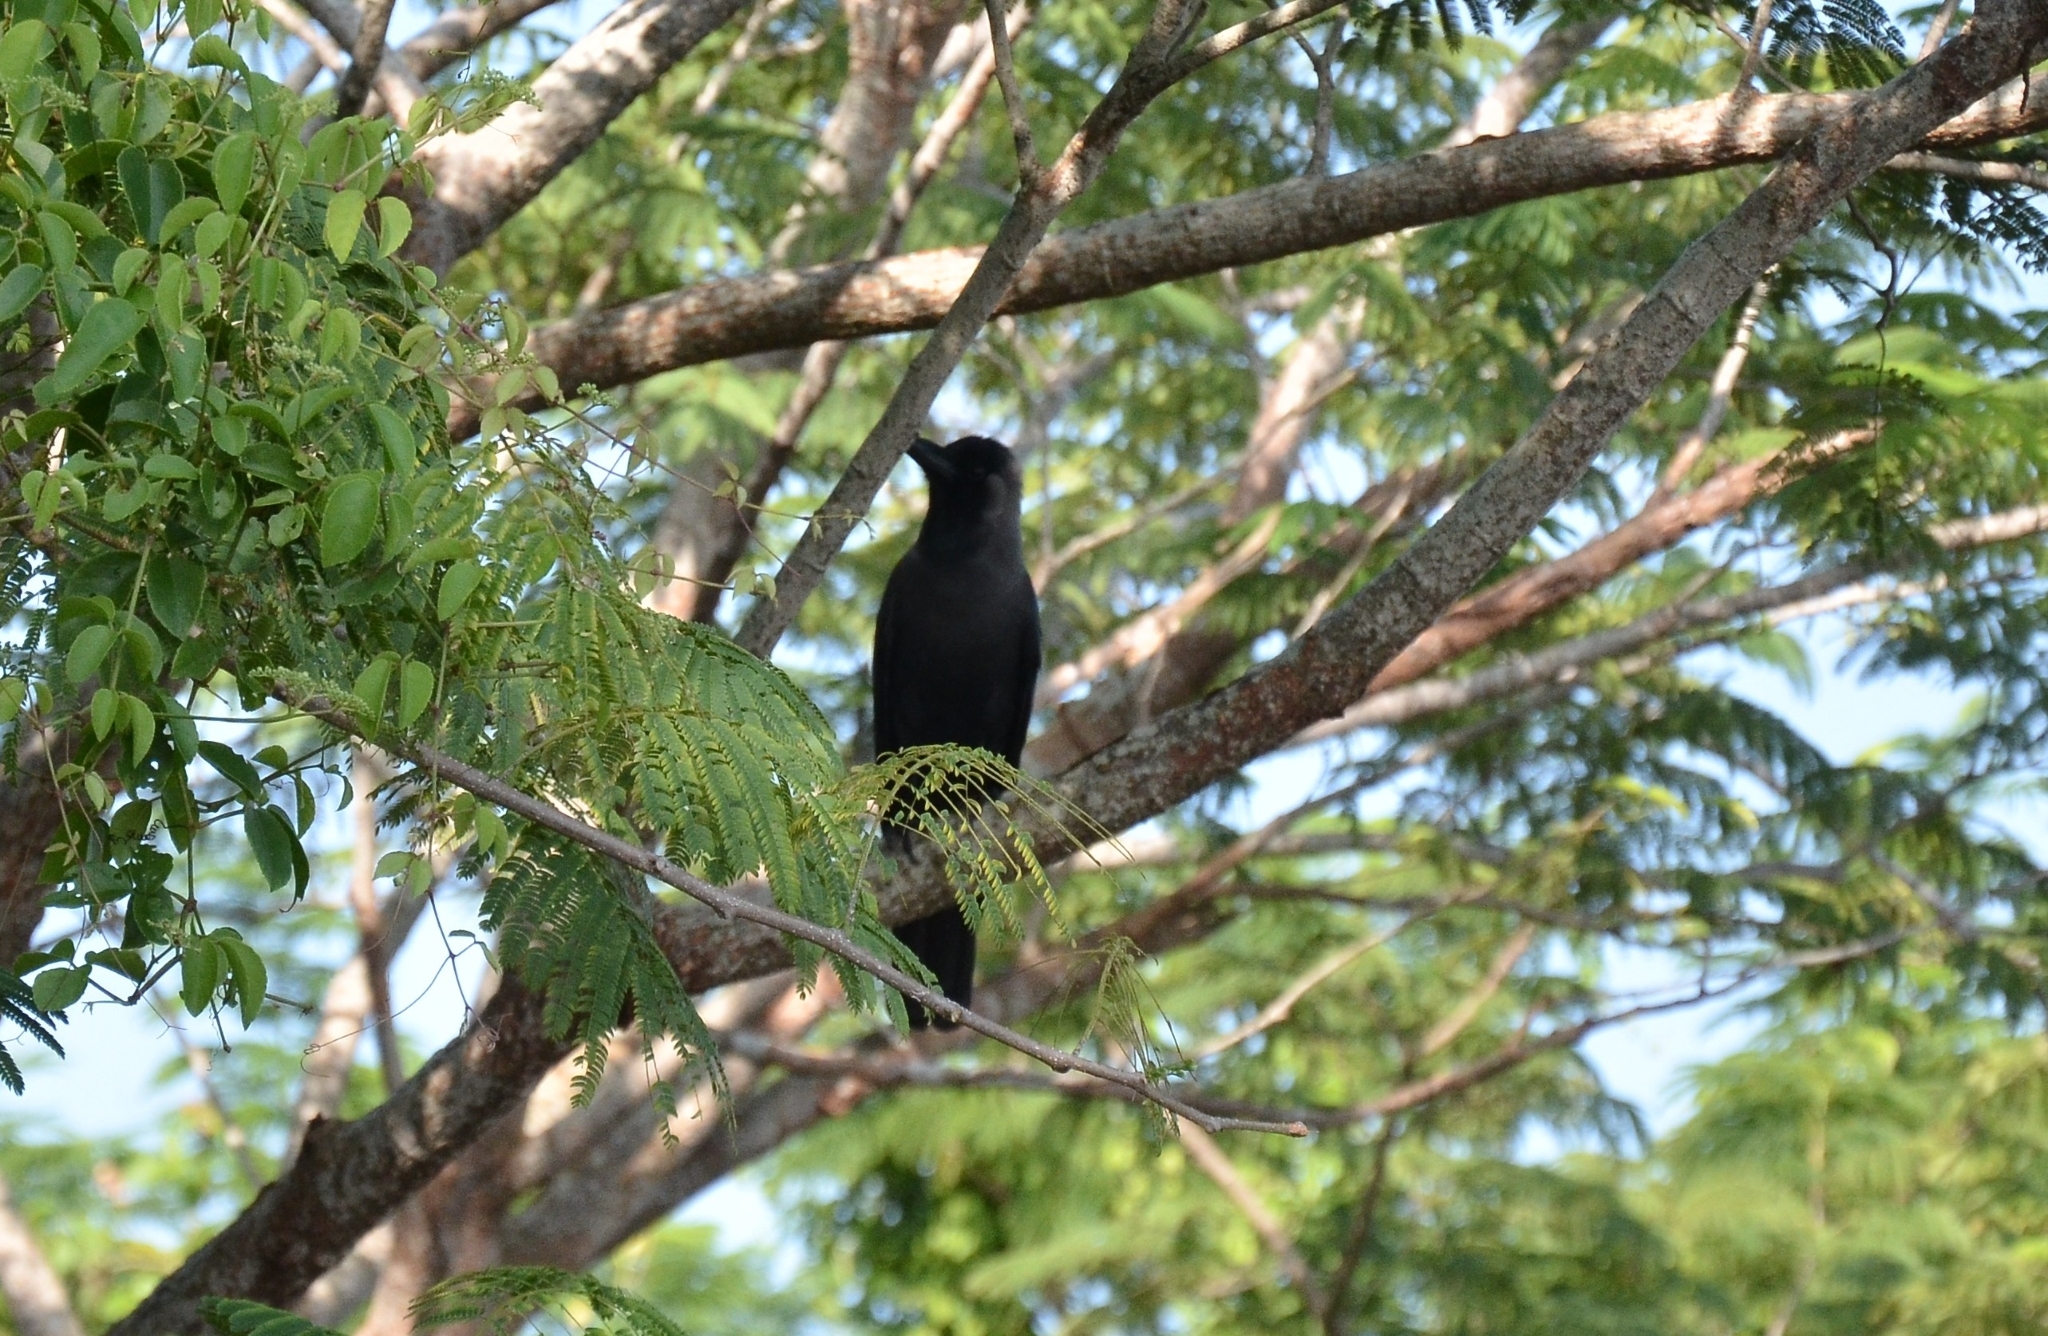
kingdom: Animalia
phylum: Chordata
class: Aves
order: Passeriformes
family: Corvidae
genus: Corvus
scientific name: Corvus splendens
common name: House crow
